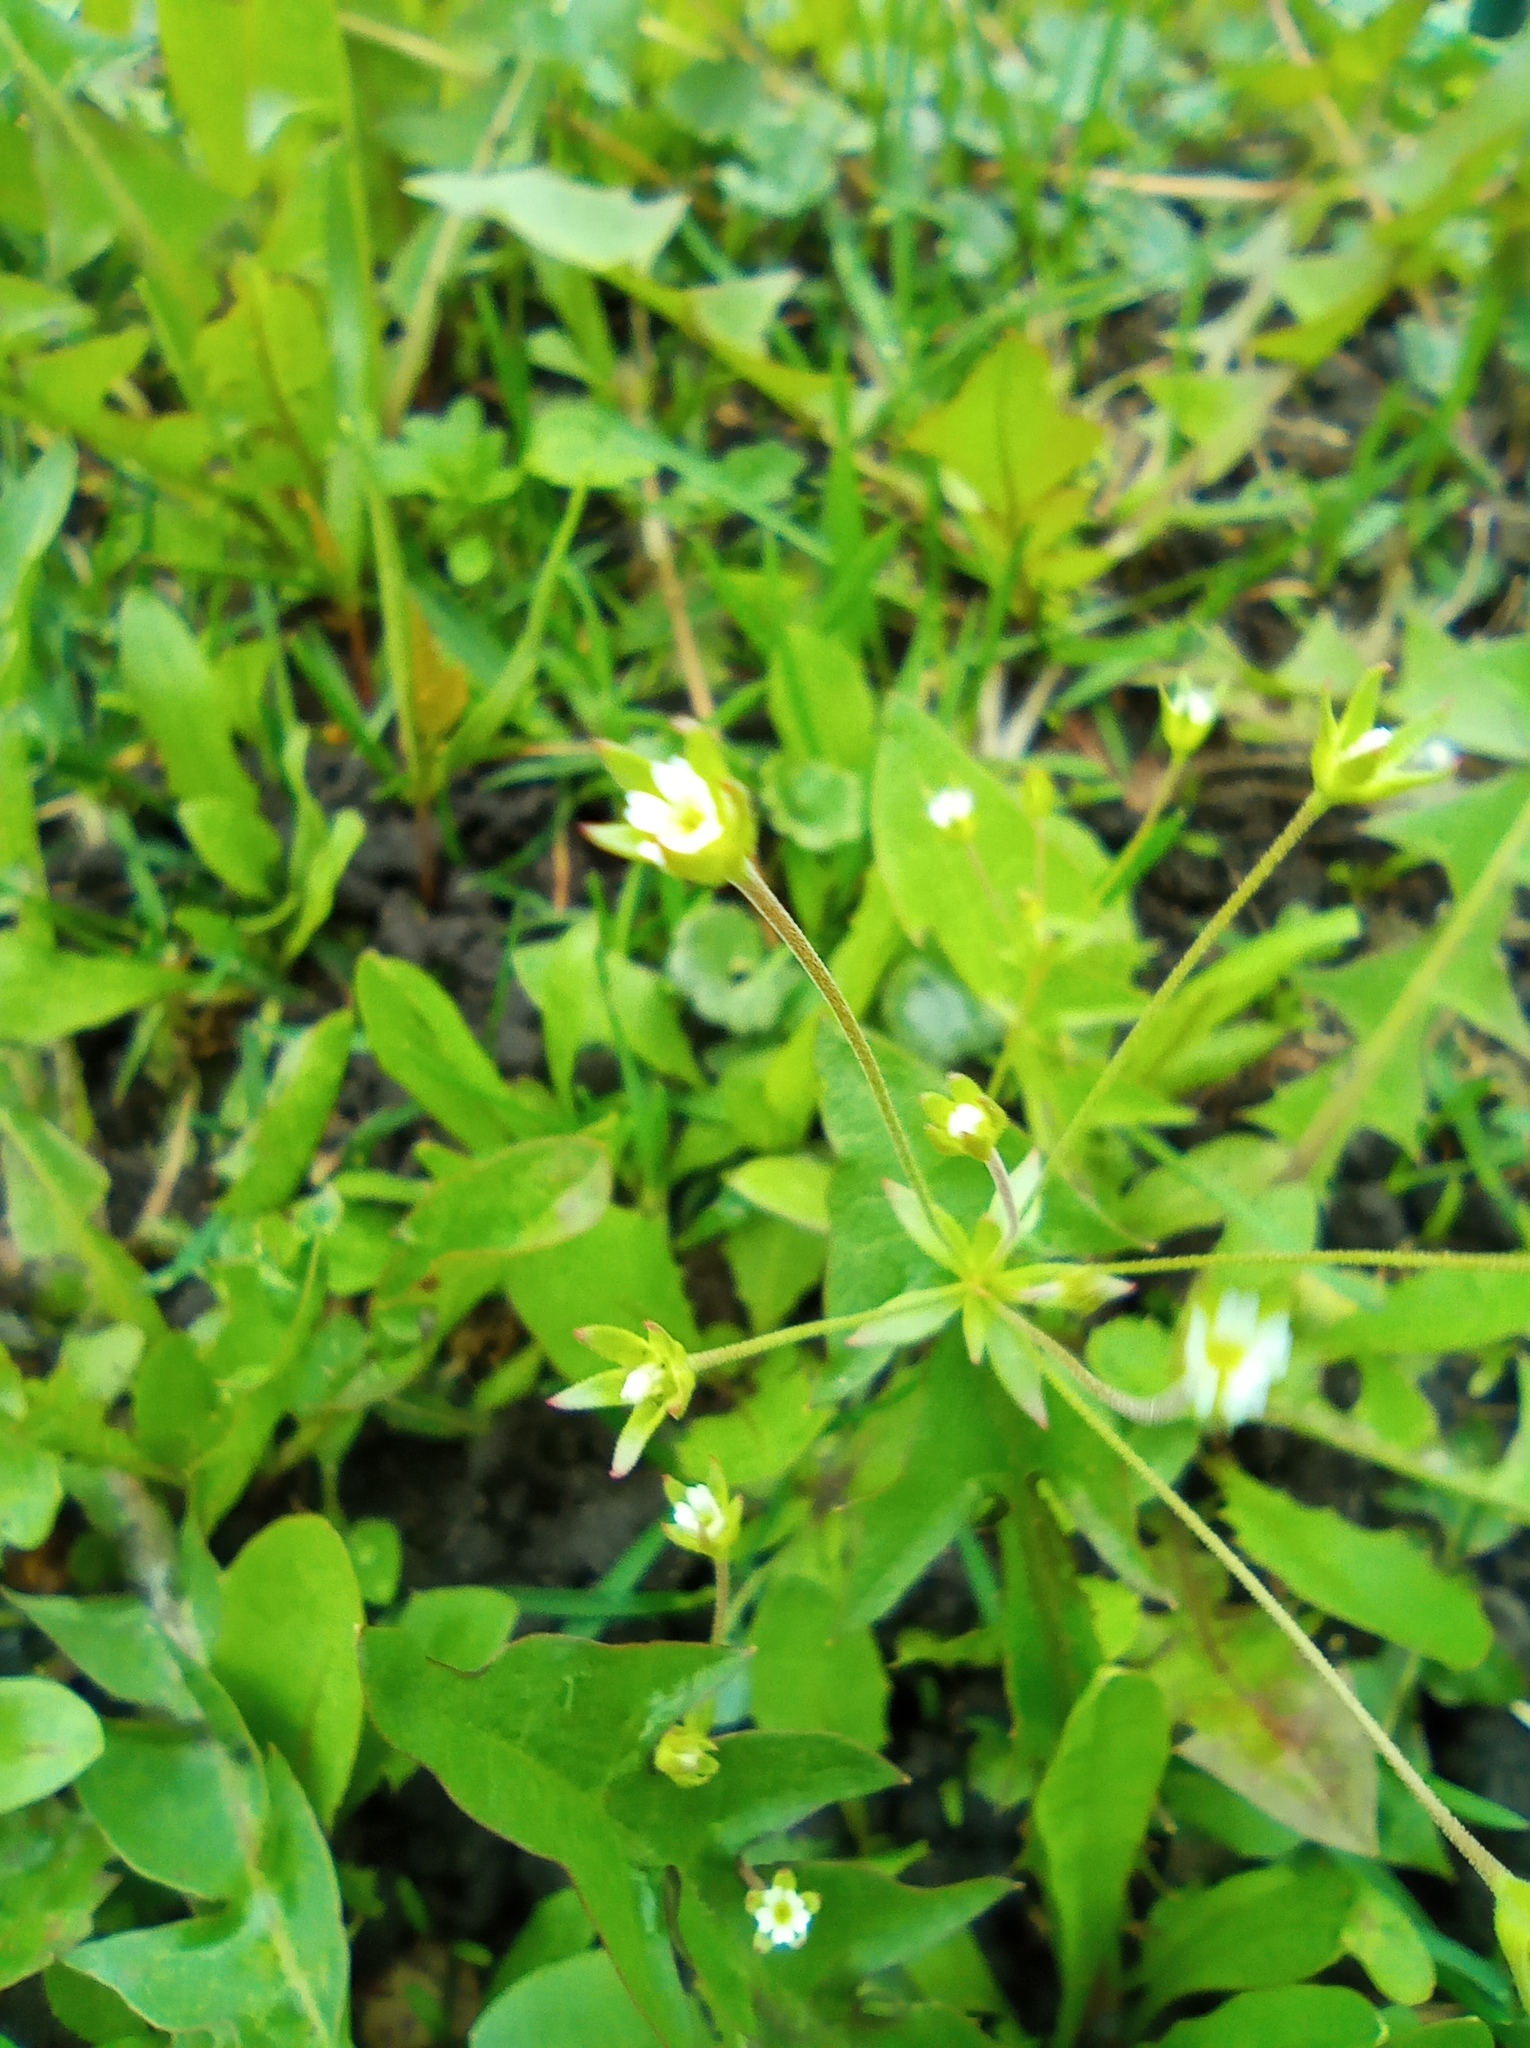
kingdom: Plantae
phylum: Tracheophyta
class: Magnoliopsida
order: Ericales
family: Primulaceae
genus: Androsace
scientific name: Androsace elongata
